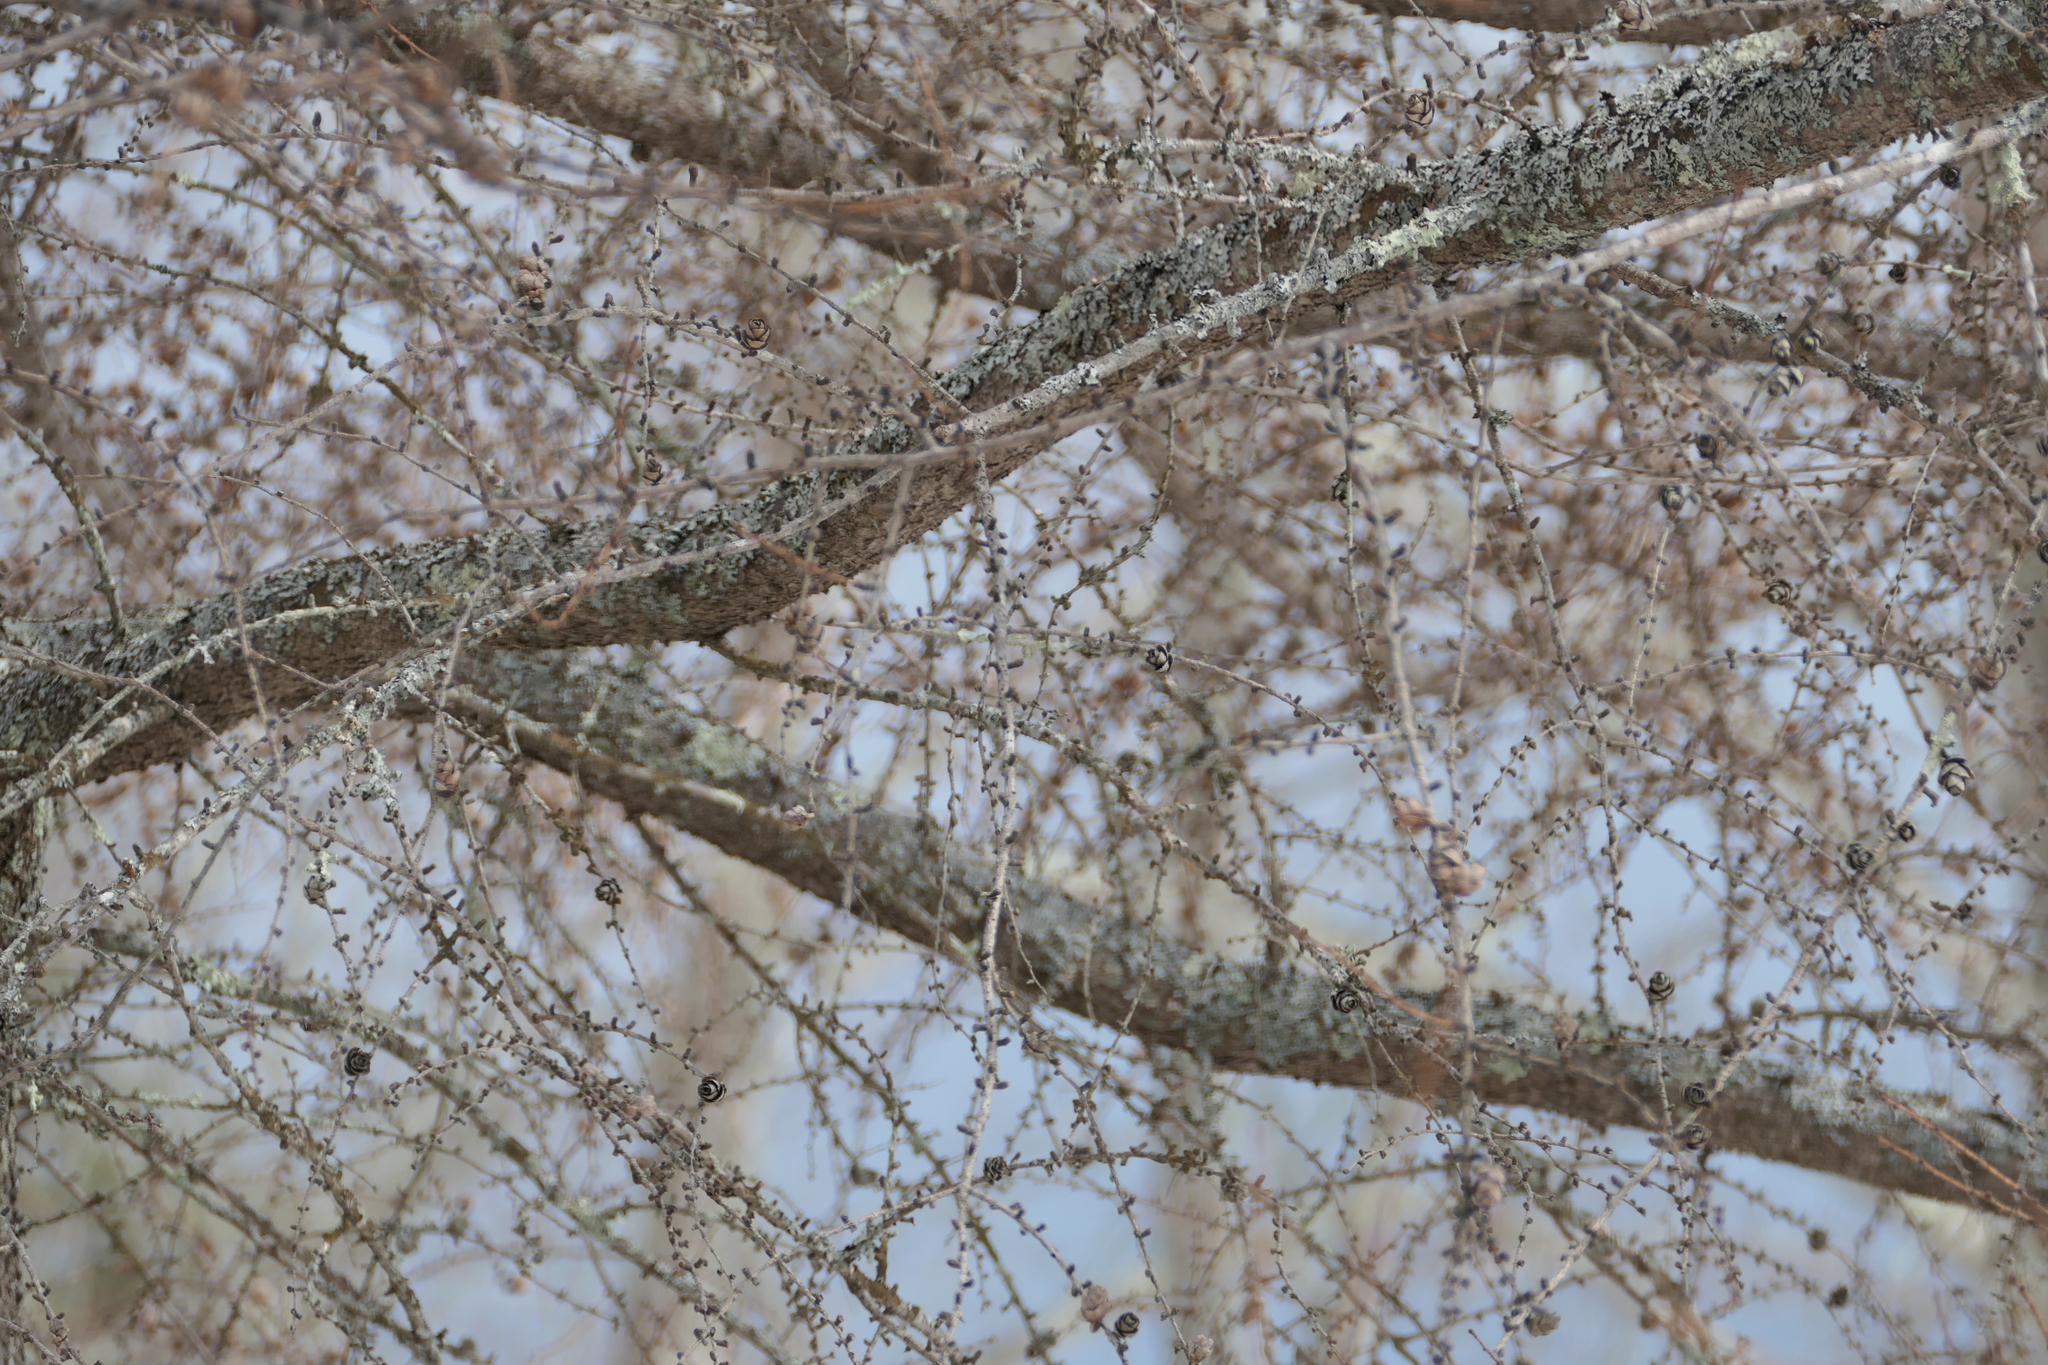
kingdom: Plantae
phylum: Tracheophyta
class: Pinopsida
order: Pinales
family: Pinaceae
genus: Larix
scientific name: Larix laricina
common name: American larch
